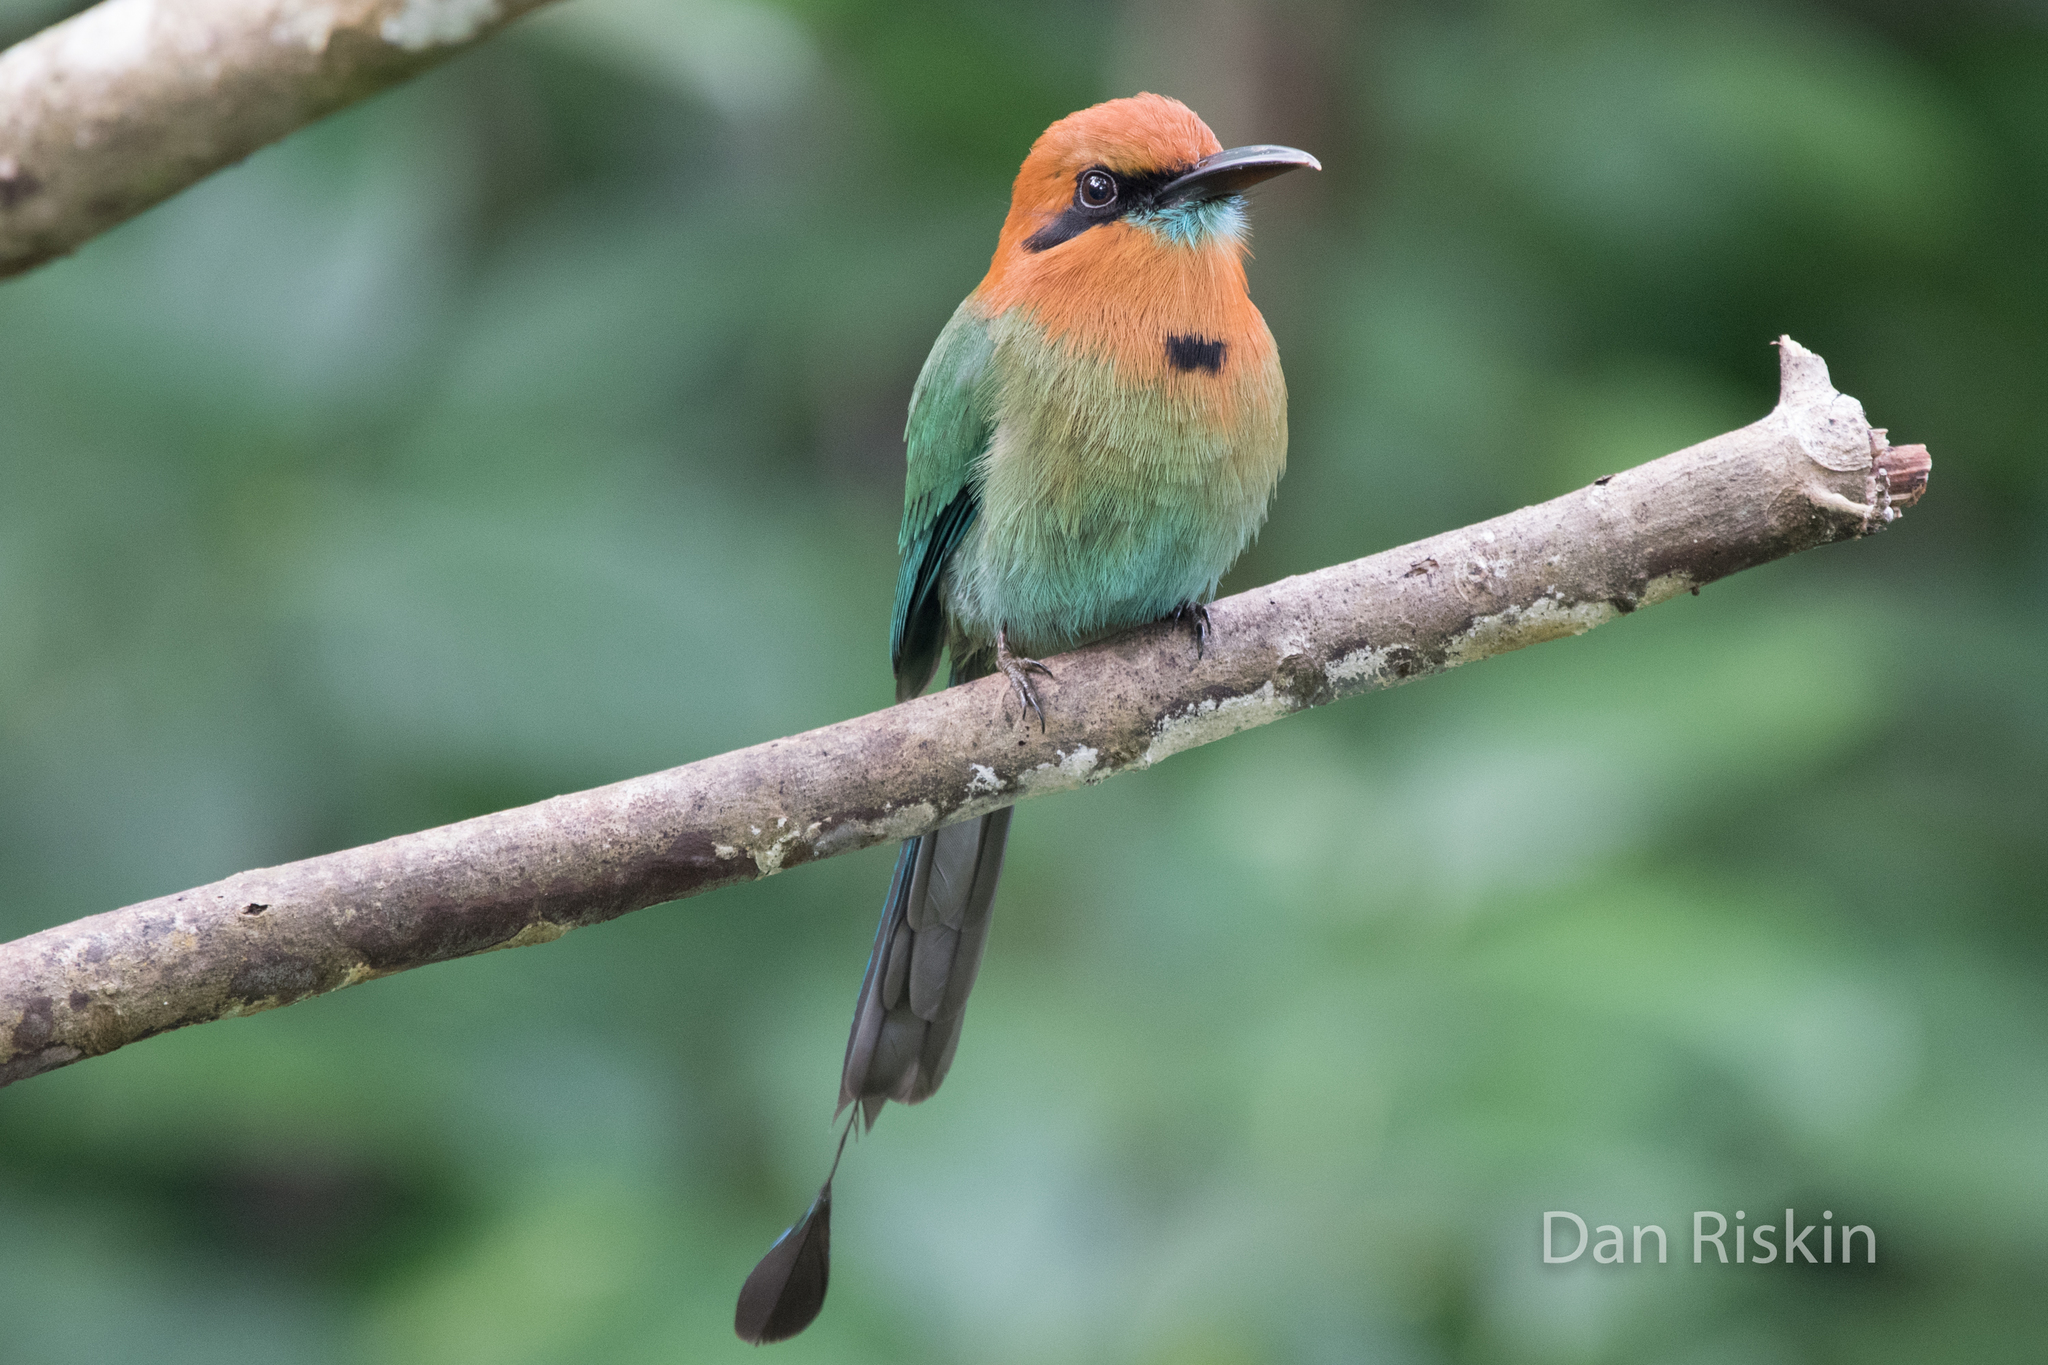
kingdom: Animalia
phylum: Chordata
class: Aves
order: Coraciiformes
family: Momotidae
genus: Electron
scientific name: Electron platyrhynchum
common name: Broad-billed motmot
